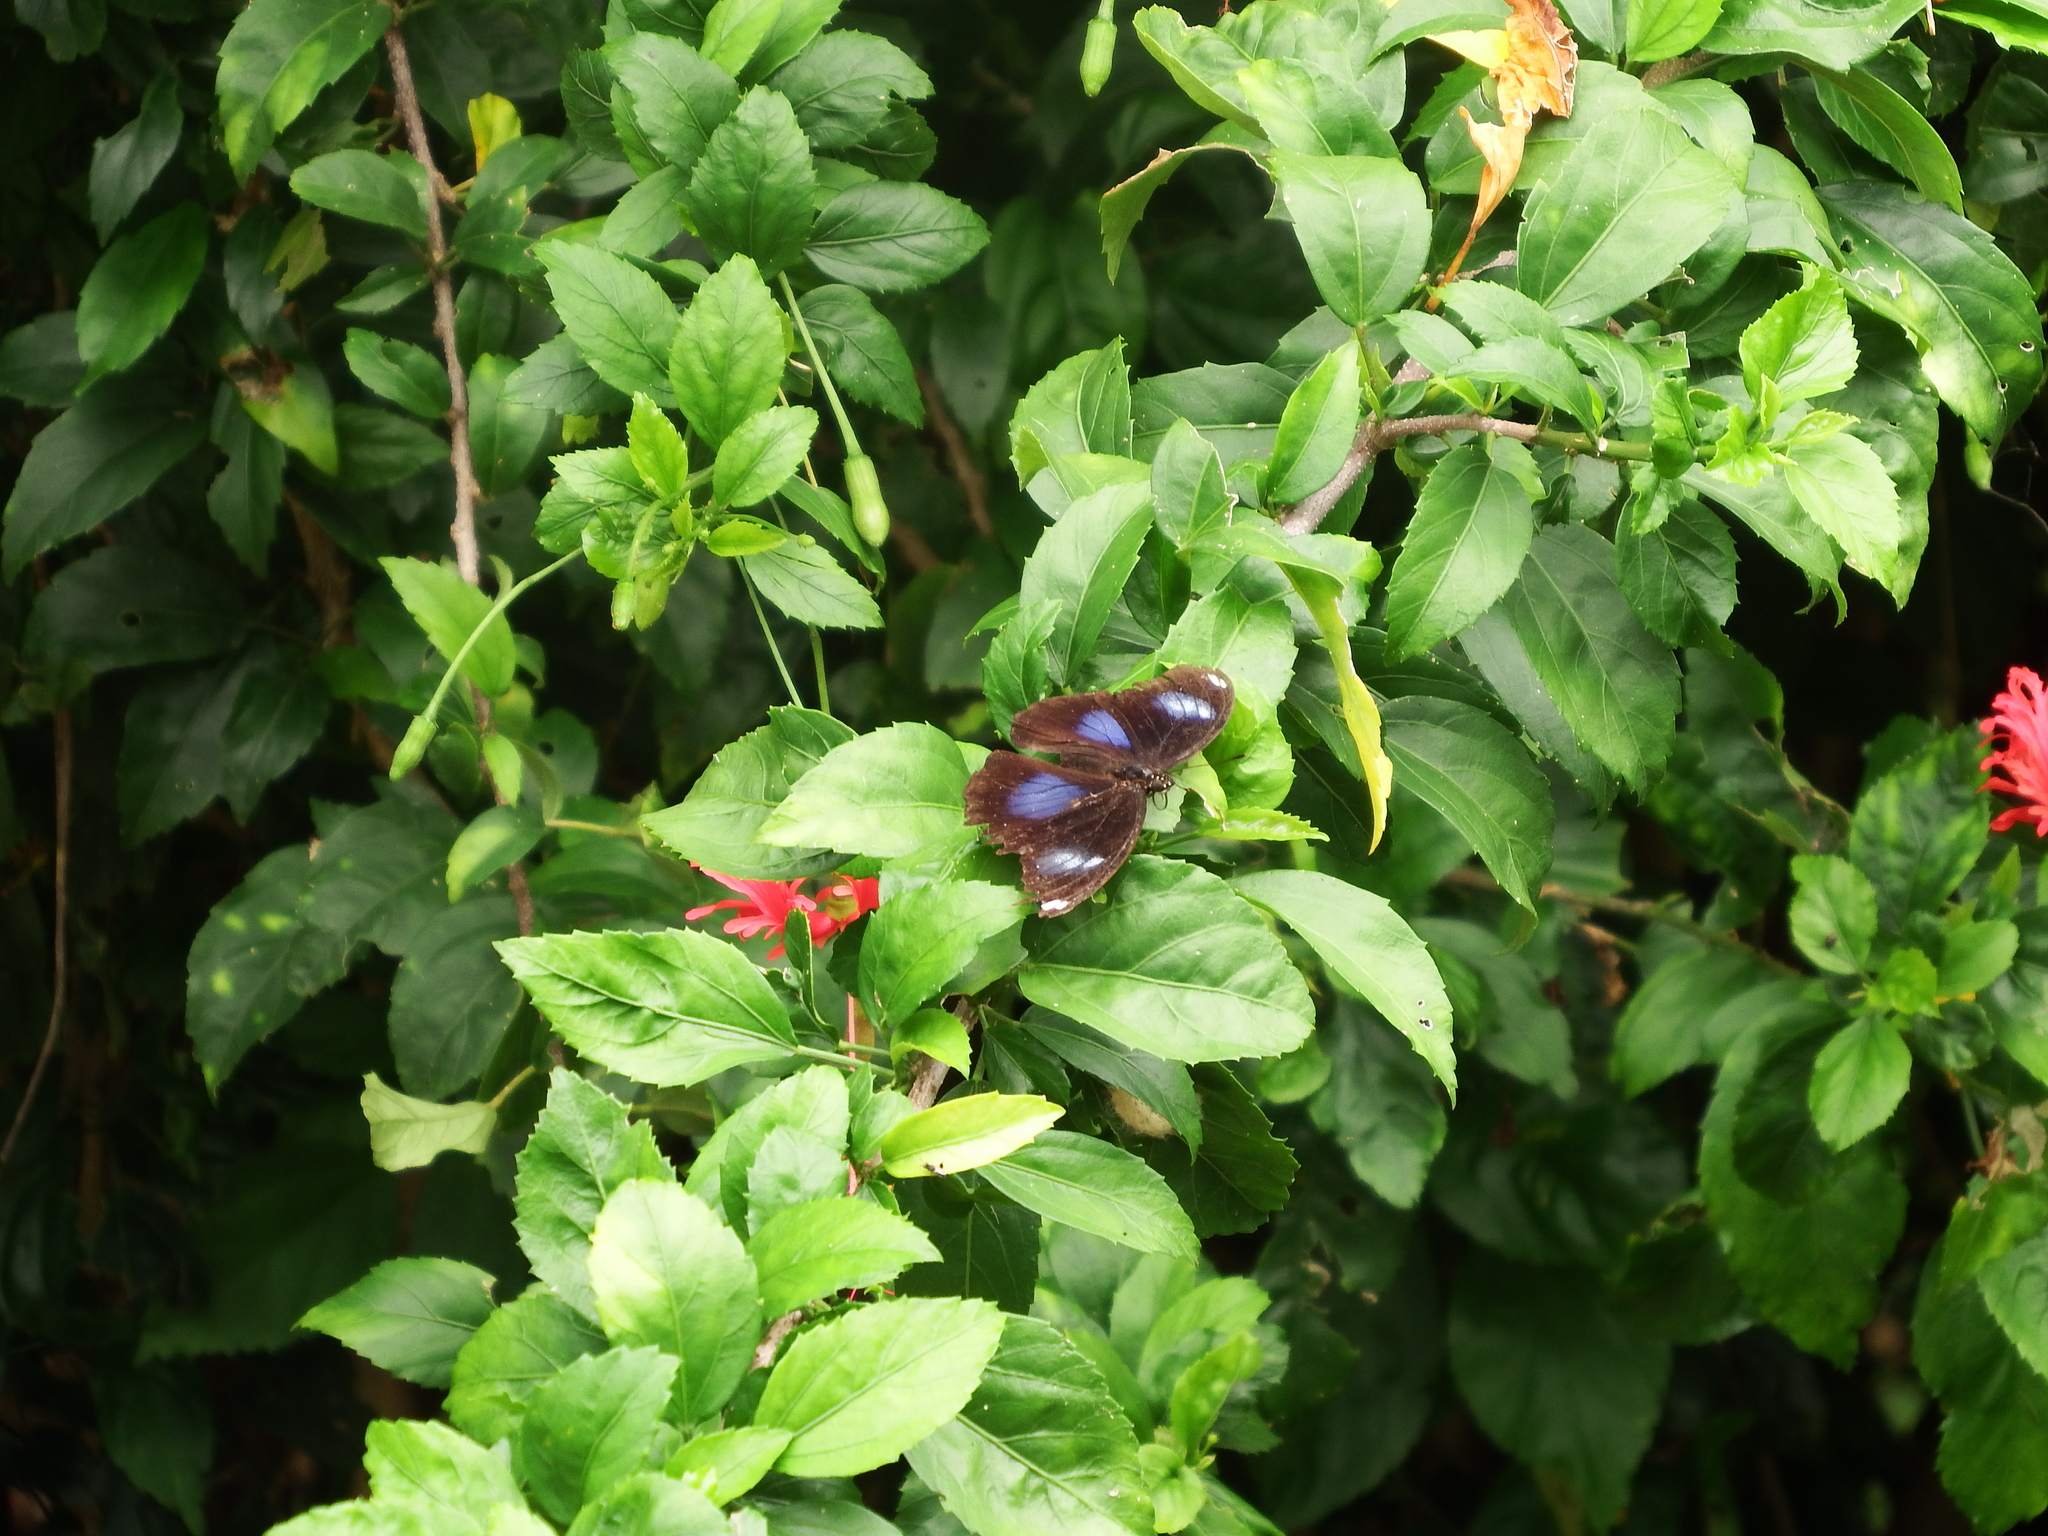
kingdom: Animalia
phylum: Arthropoda
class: Insecta
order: Lepidoptera
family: Nymphalidae
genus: Hypolimnas
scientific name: Hypolimnas bolina
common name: Great eggfly
